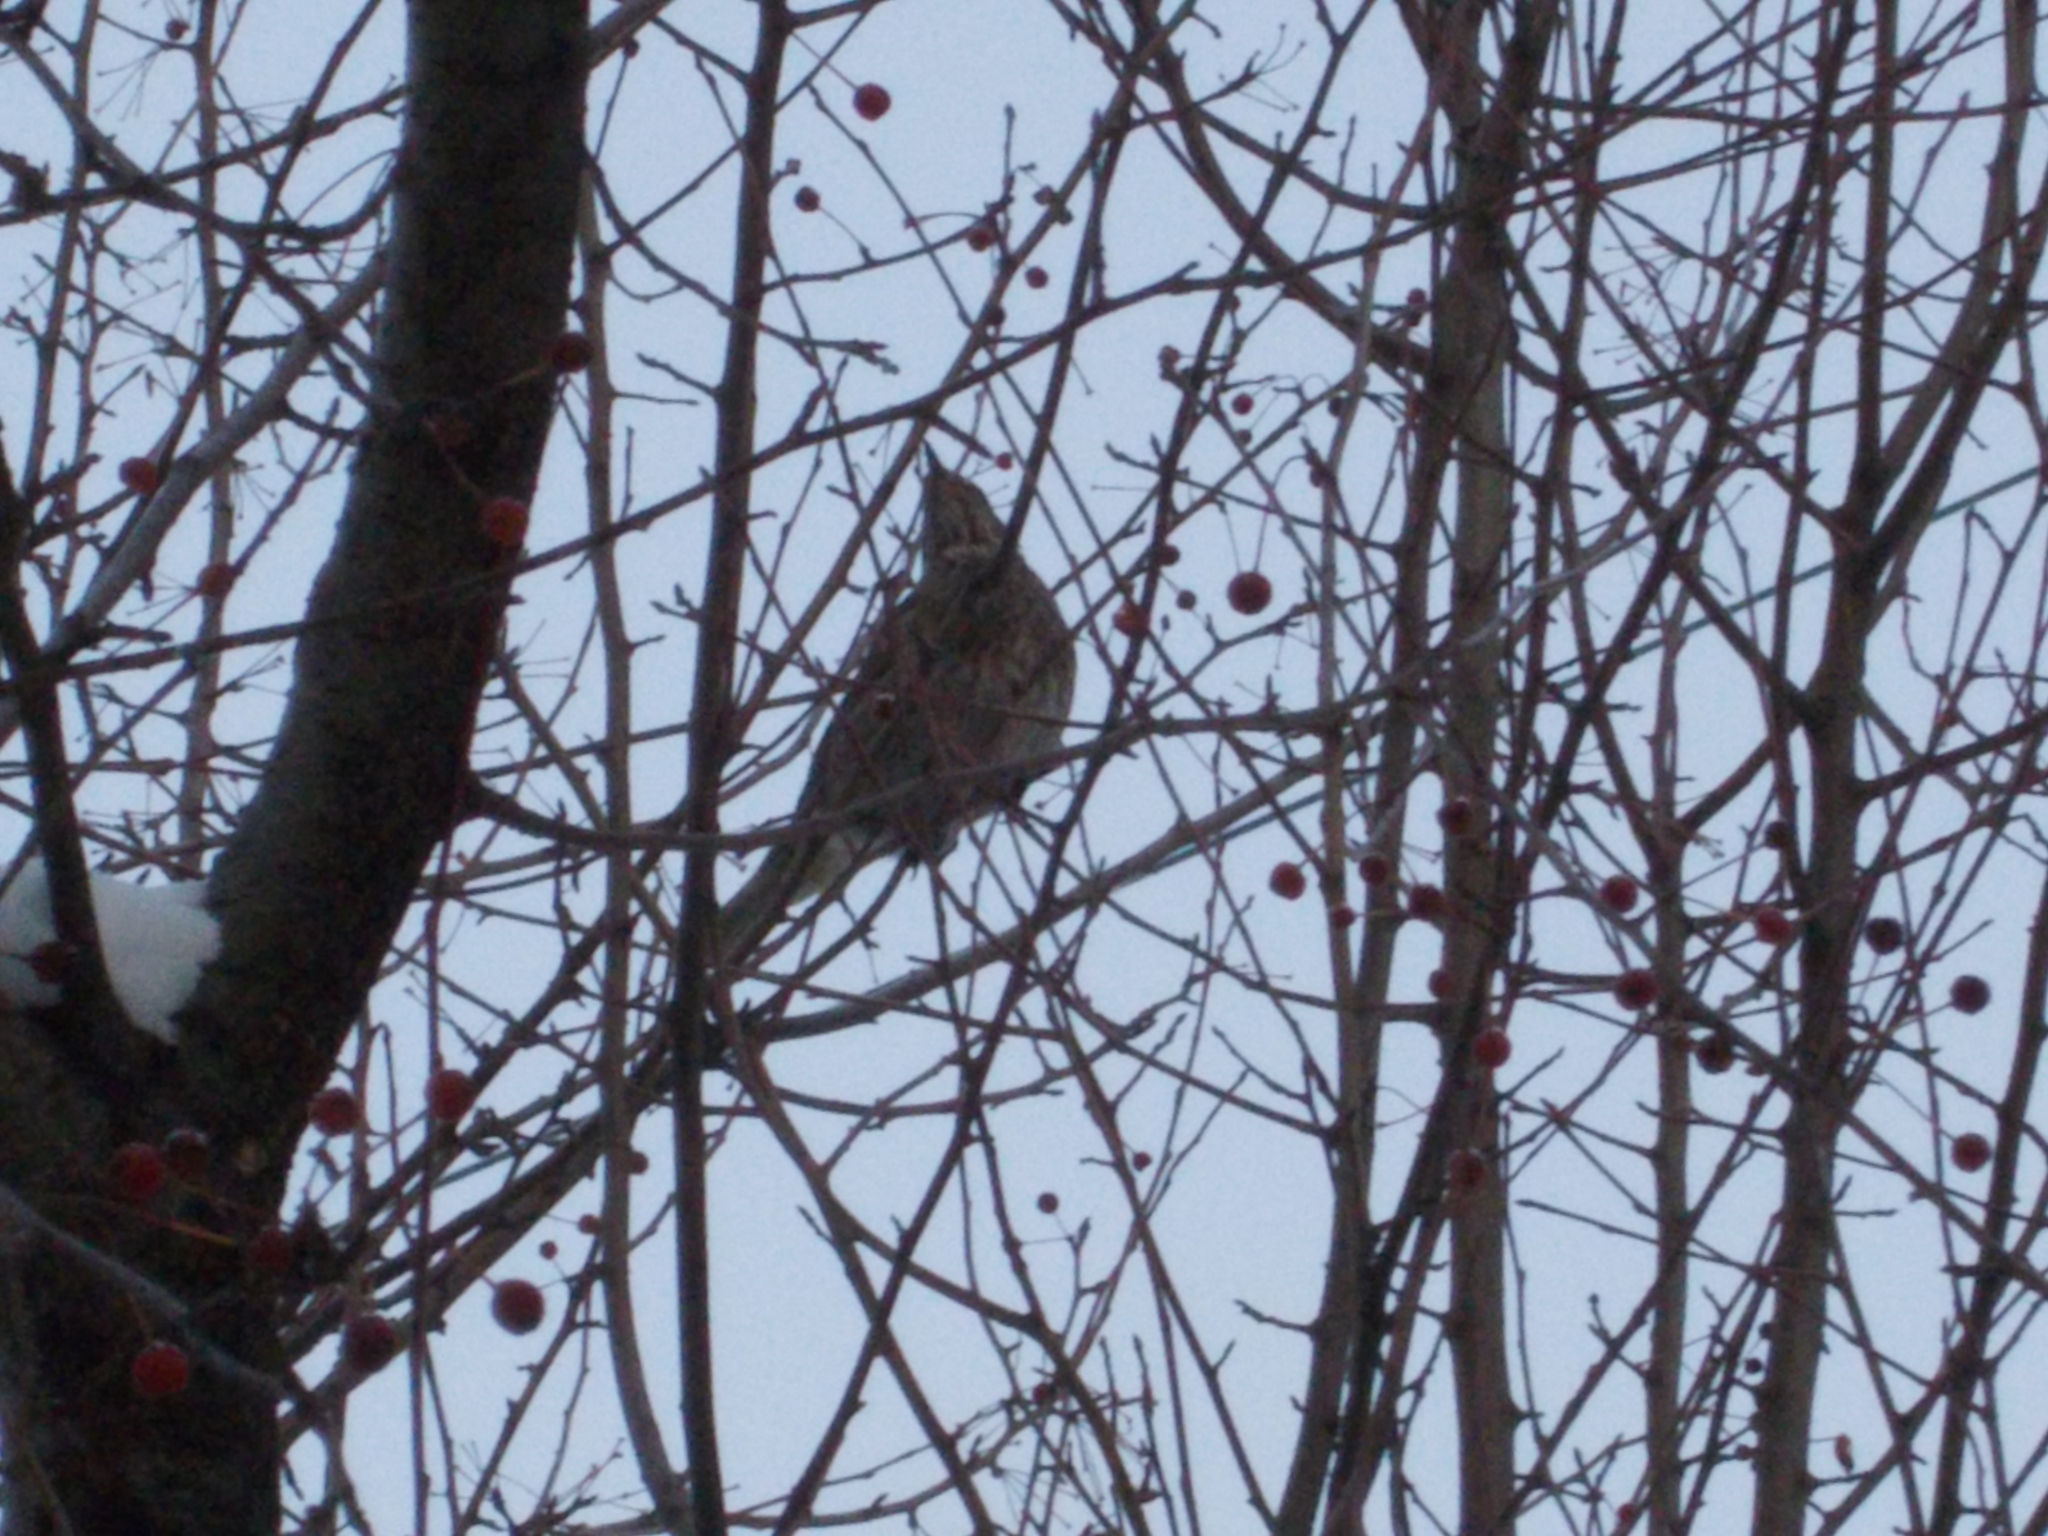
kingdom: Animalia
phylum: Chordata
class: Aves
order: Passeriformes
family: Turdidae
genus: Turdus
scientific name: Turdus atrogularis
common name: Black-throated thrush
